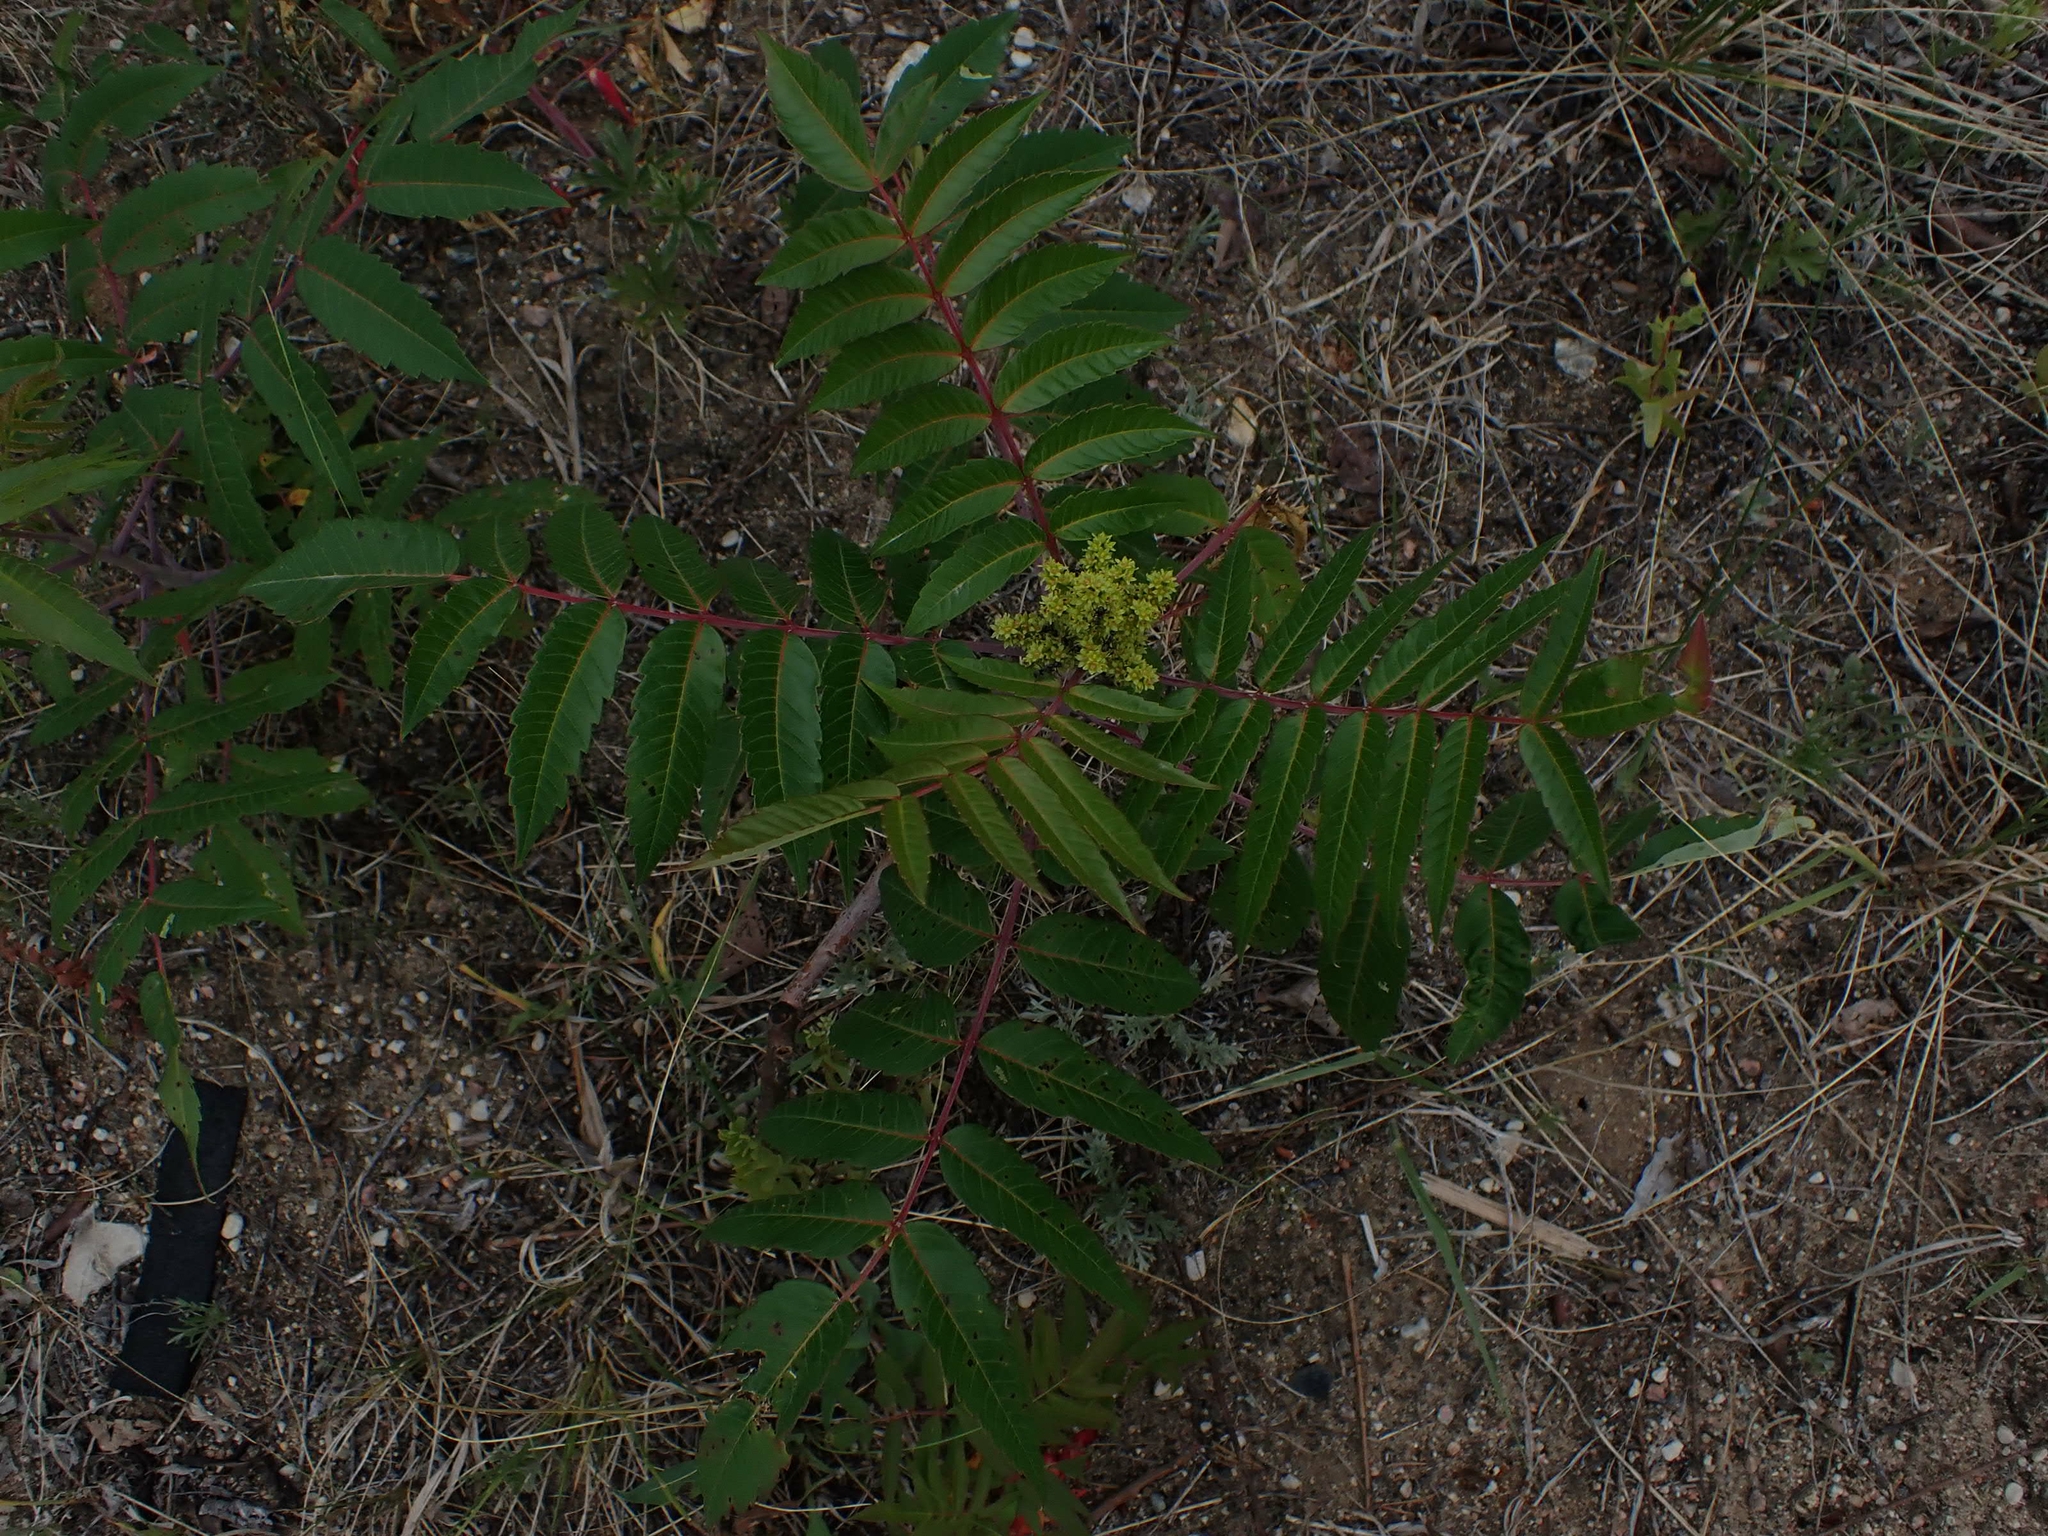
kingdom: Plantae
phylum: Tracheophyta
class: Magnoliopsida
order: Sapindales
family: Anacardiaceae
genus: Rhus
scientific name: Rhus glabra
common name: Scarlet sumac
